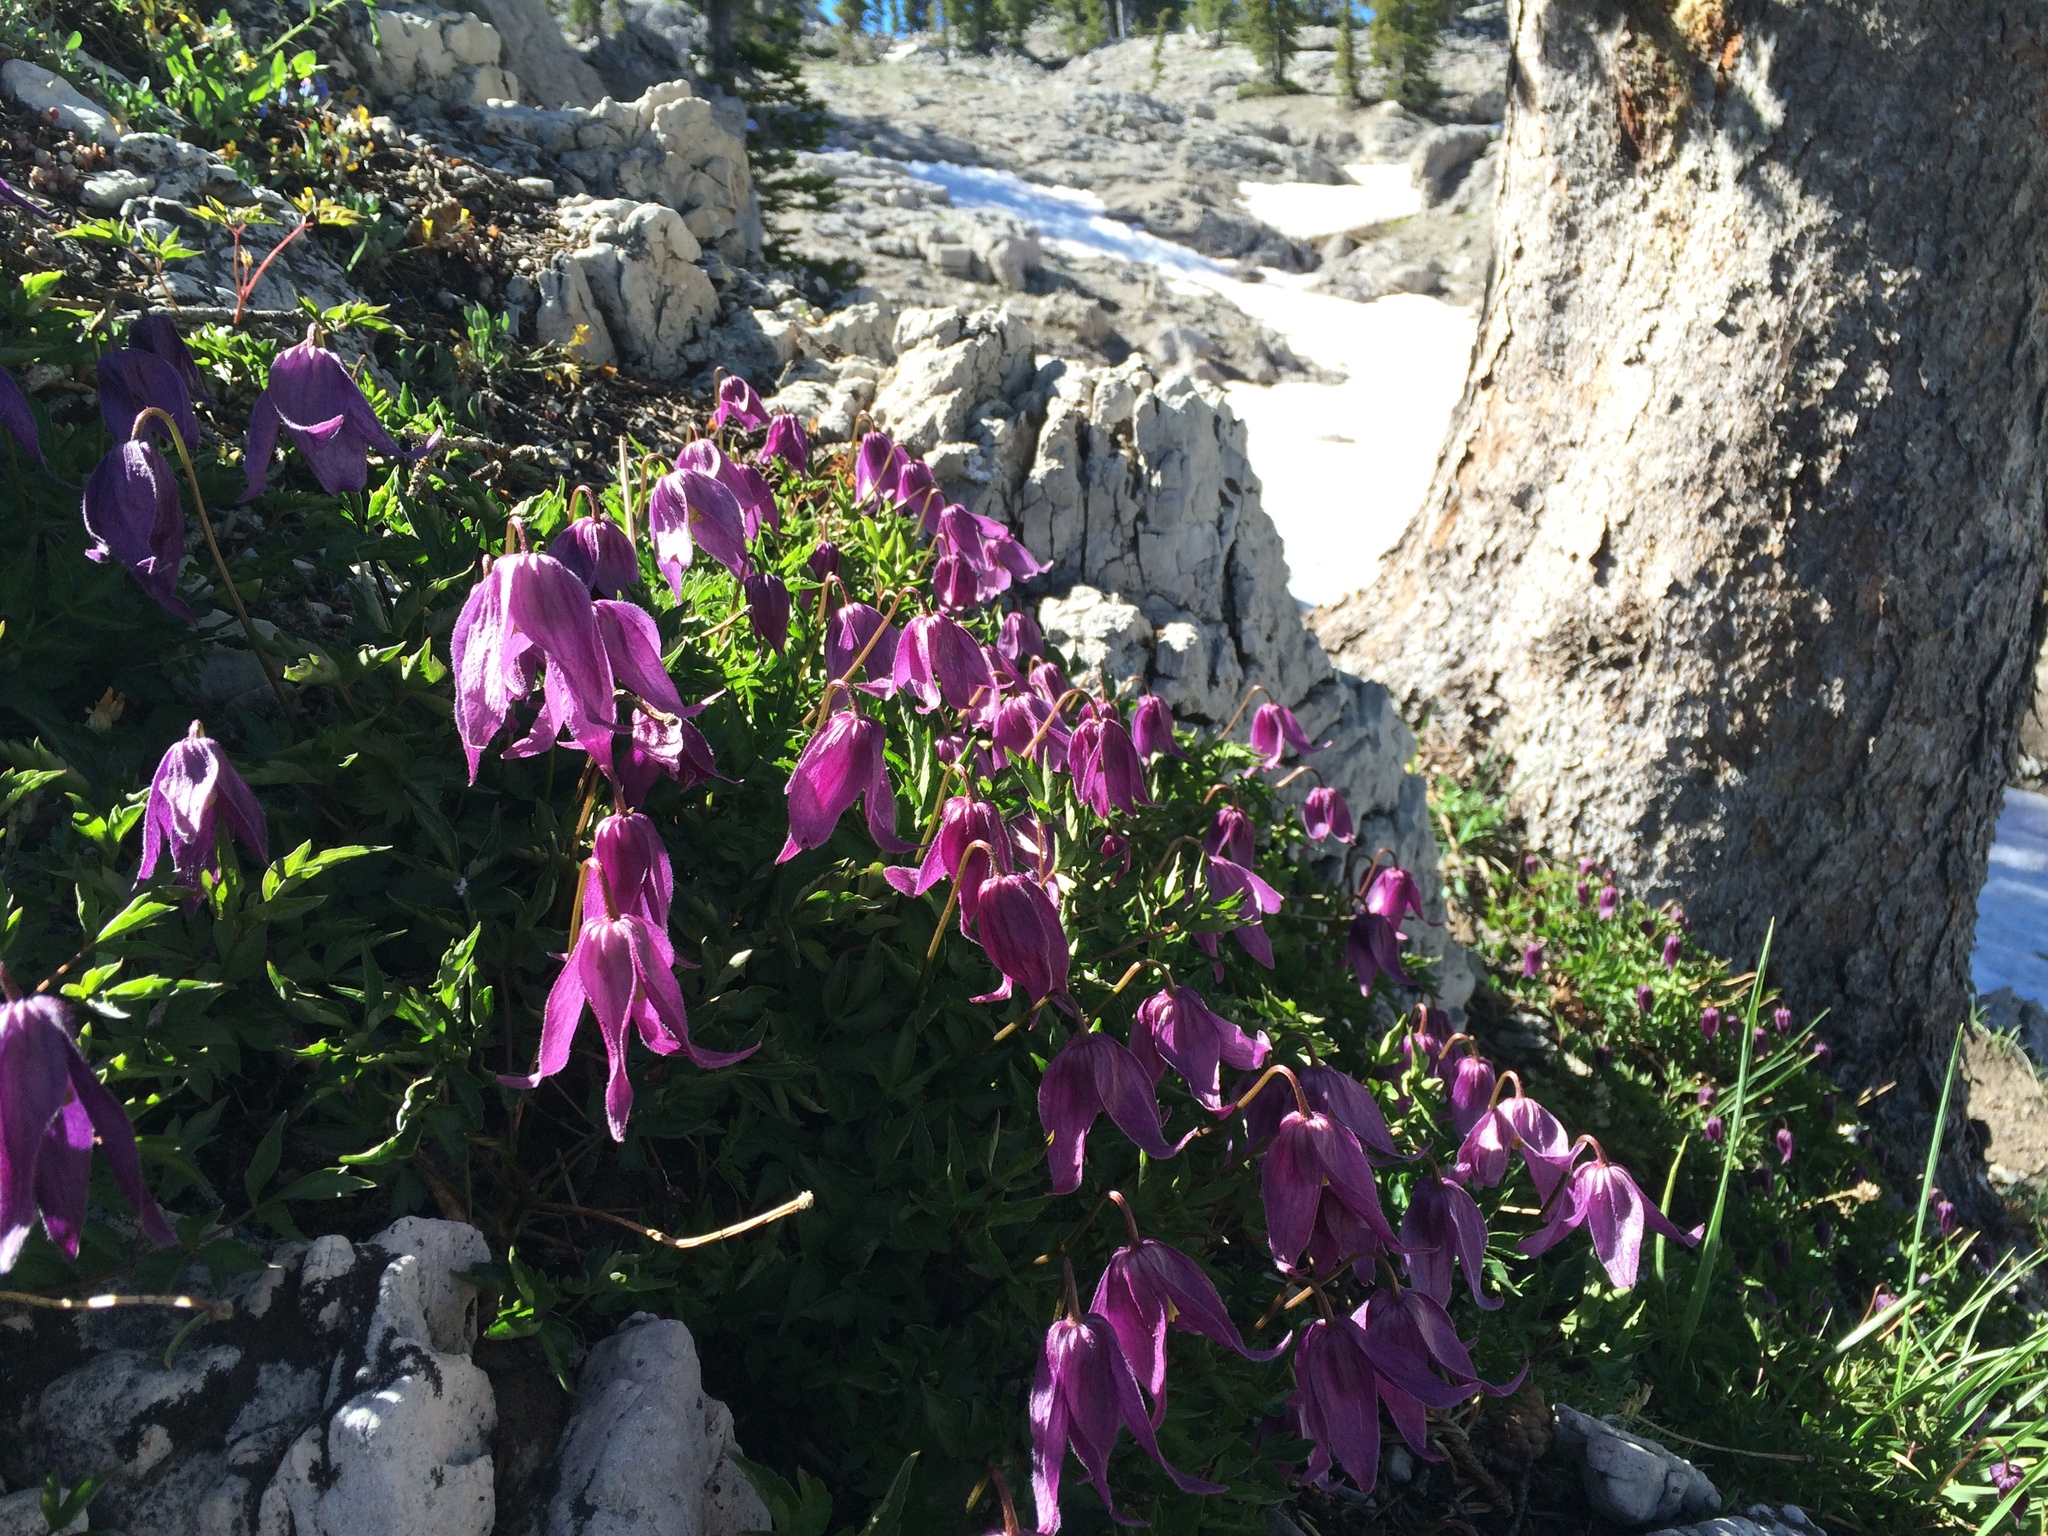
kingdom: Plantae
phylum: Tracheophyta
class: Magnoliopsida
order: Ranunculales
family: Ranunculaceae
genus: Clematis
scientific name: Clematis columbiana
